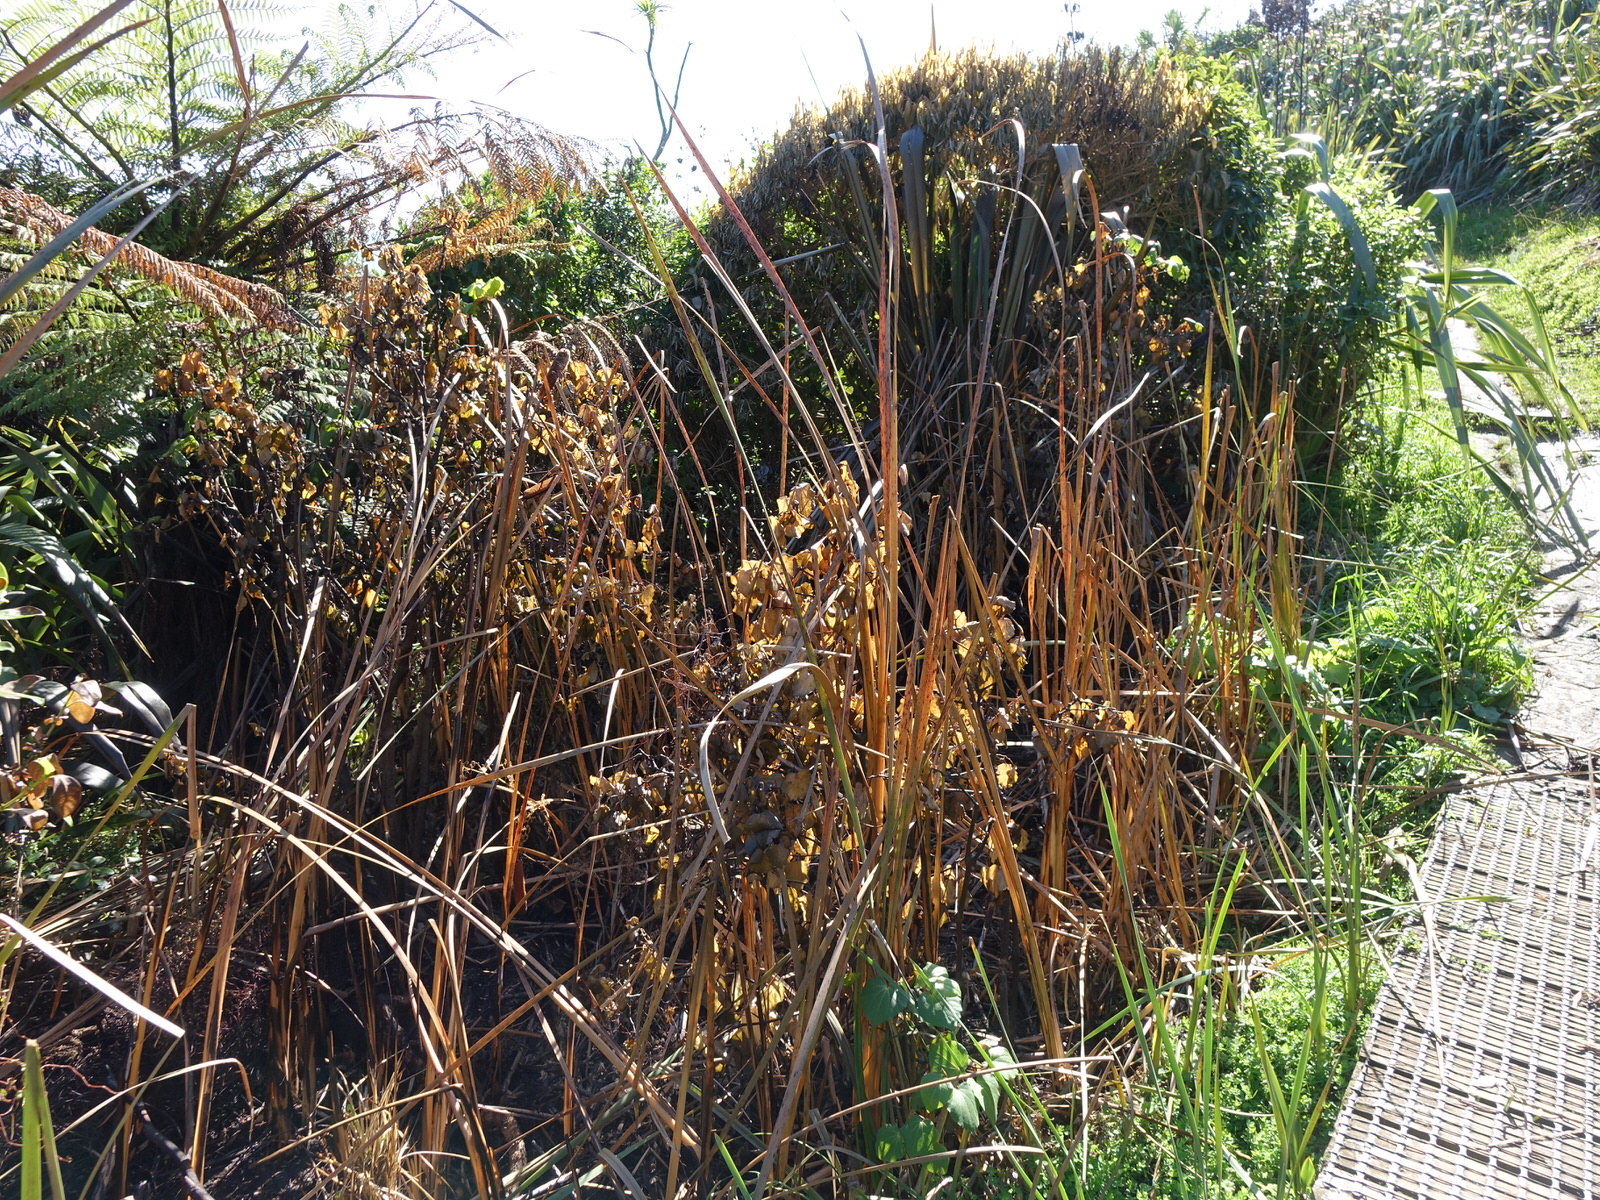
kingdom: Plantae
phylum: Tracheophyta
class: Liliopsida
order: Poales
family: Typhaceae
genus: Typha
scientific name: Typha orientalis
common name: Bullrush
